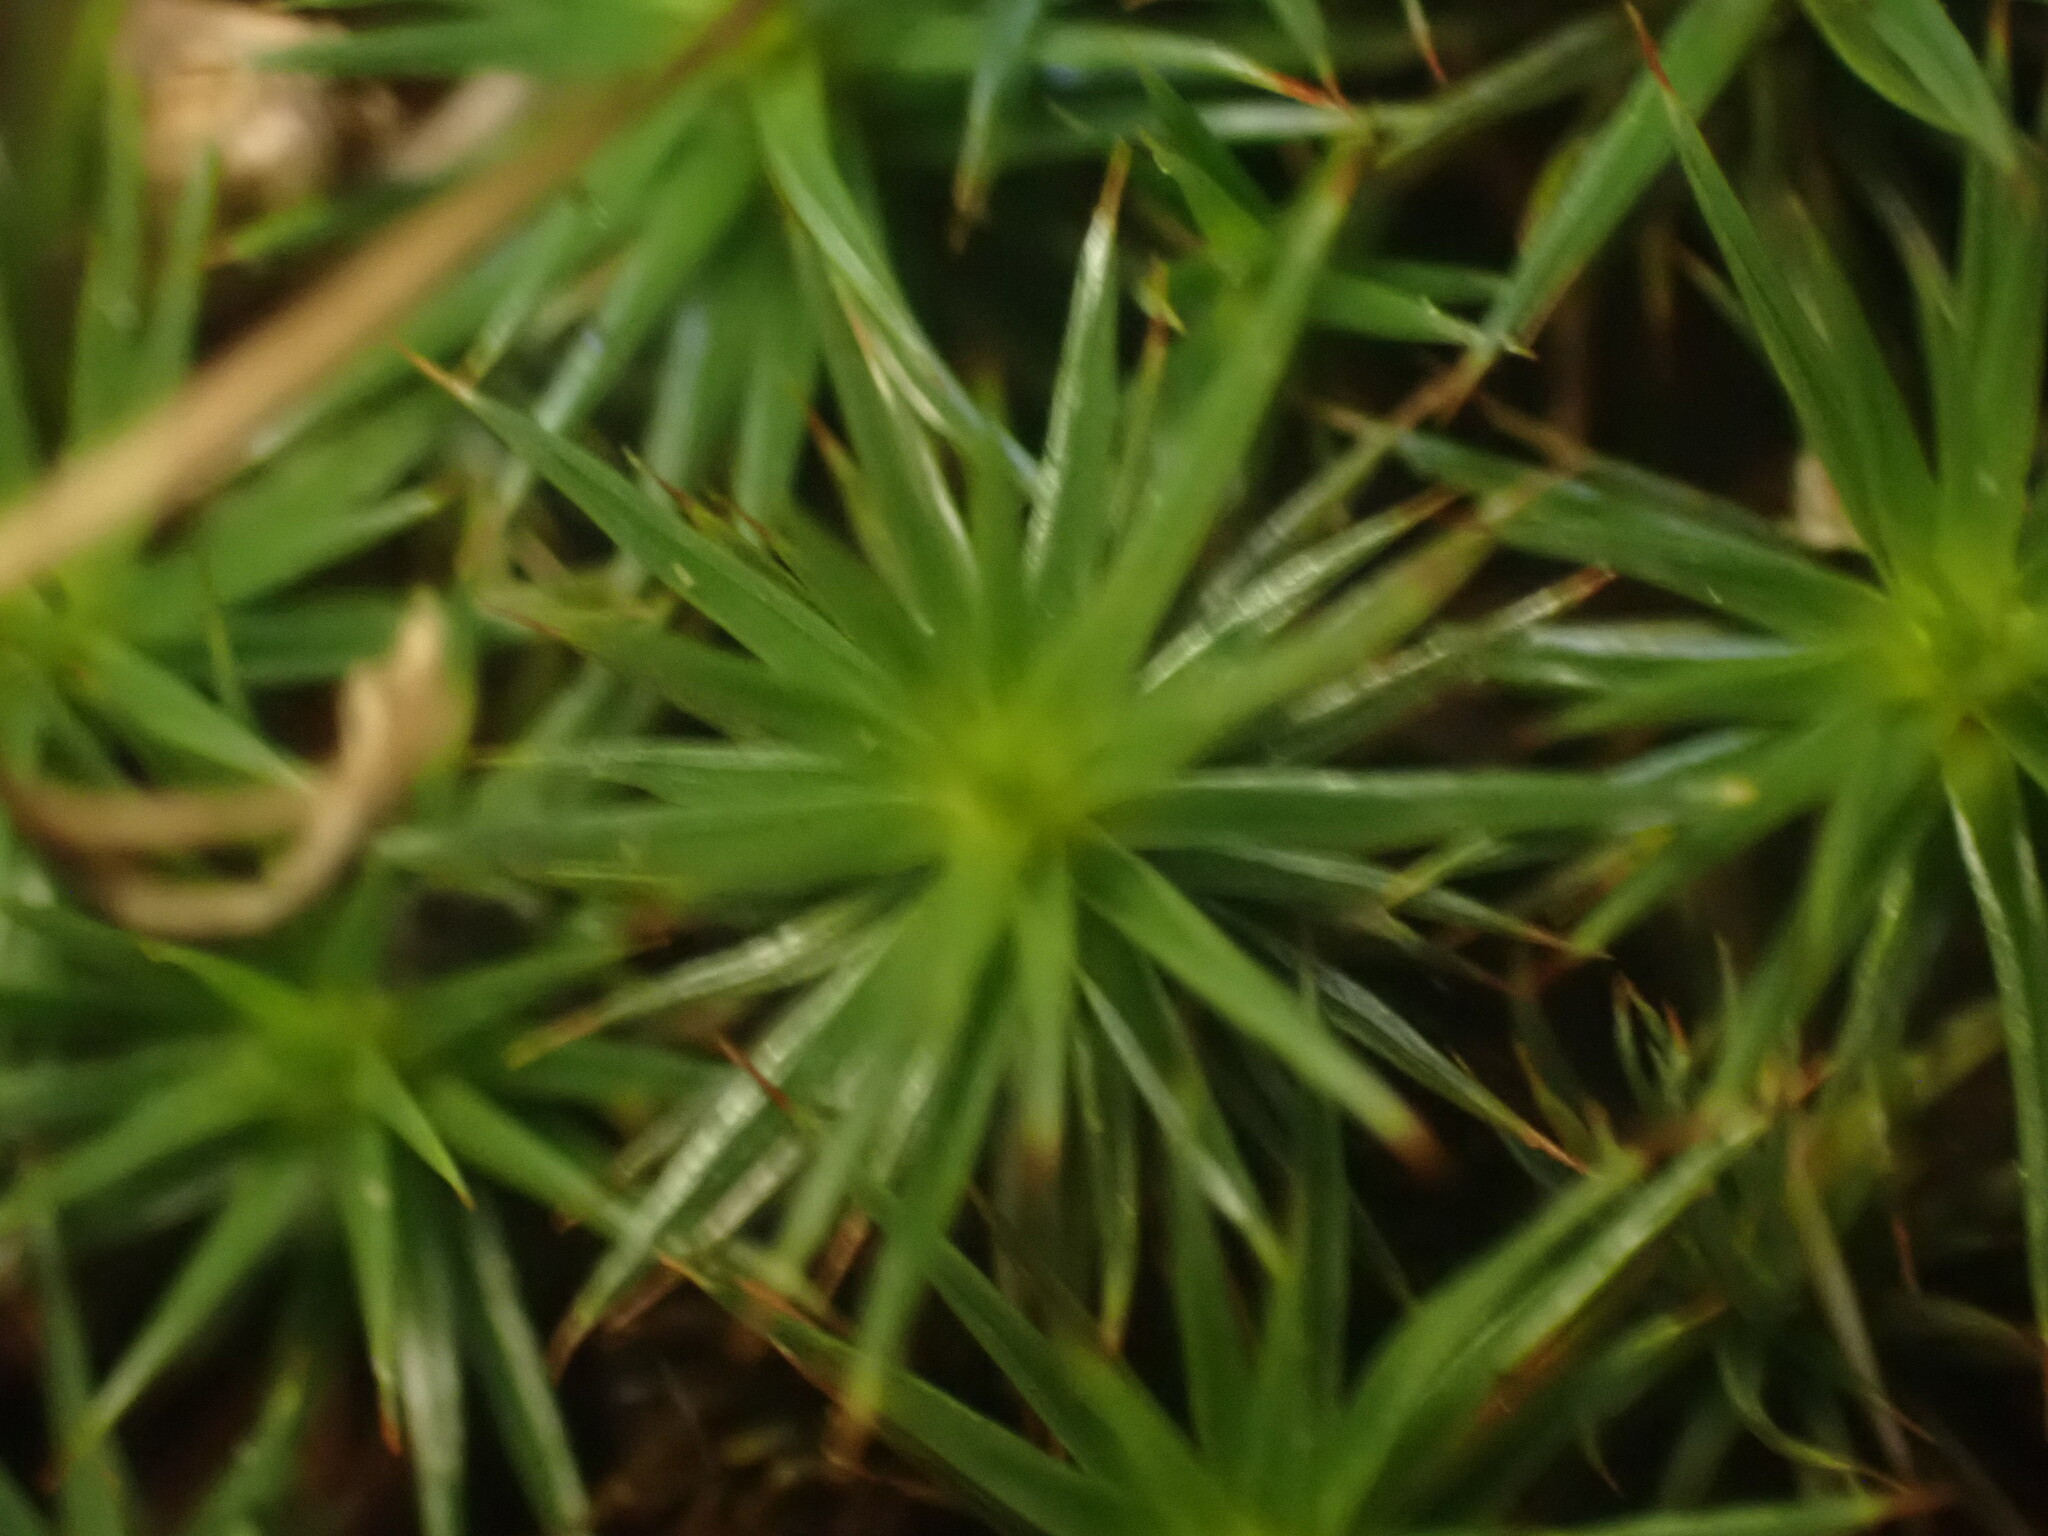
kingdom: Plantae
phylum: Bryophyta
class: Polytrichopsida
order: Polytrichales
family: Polytrichaceae
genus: Polytrichum
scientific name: Polytrichum juniperinum
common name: Juniper haircap moss
